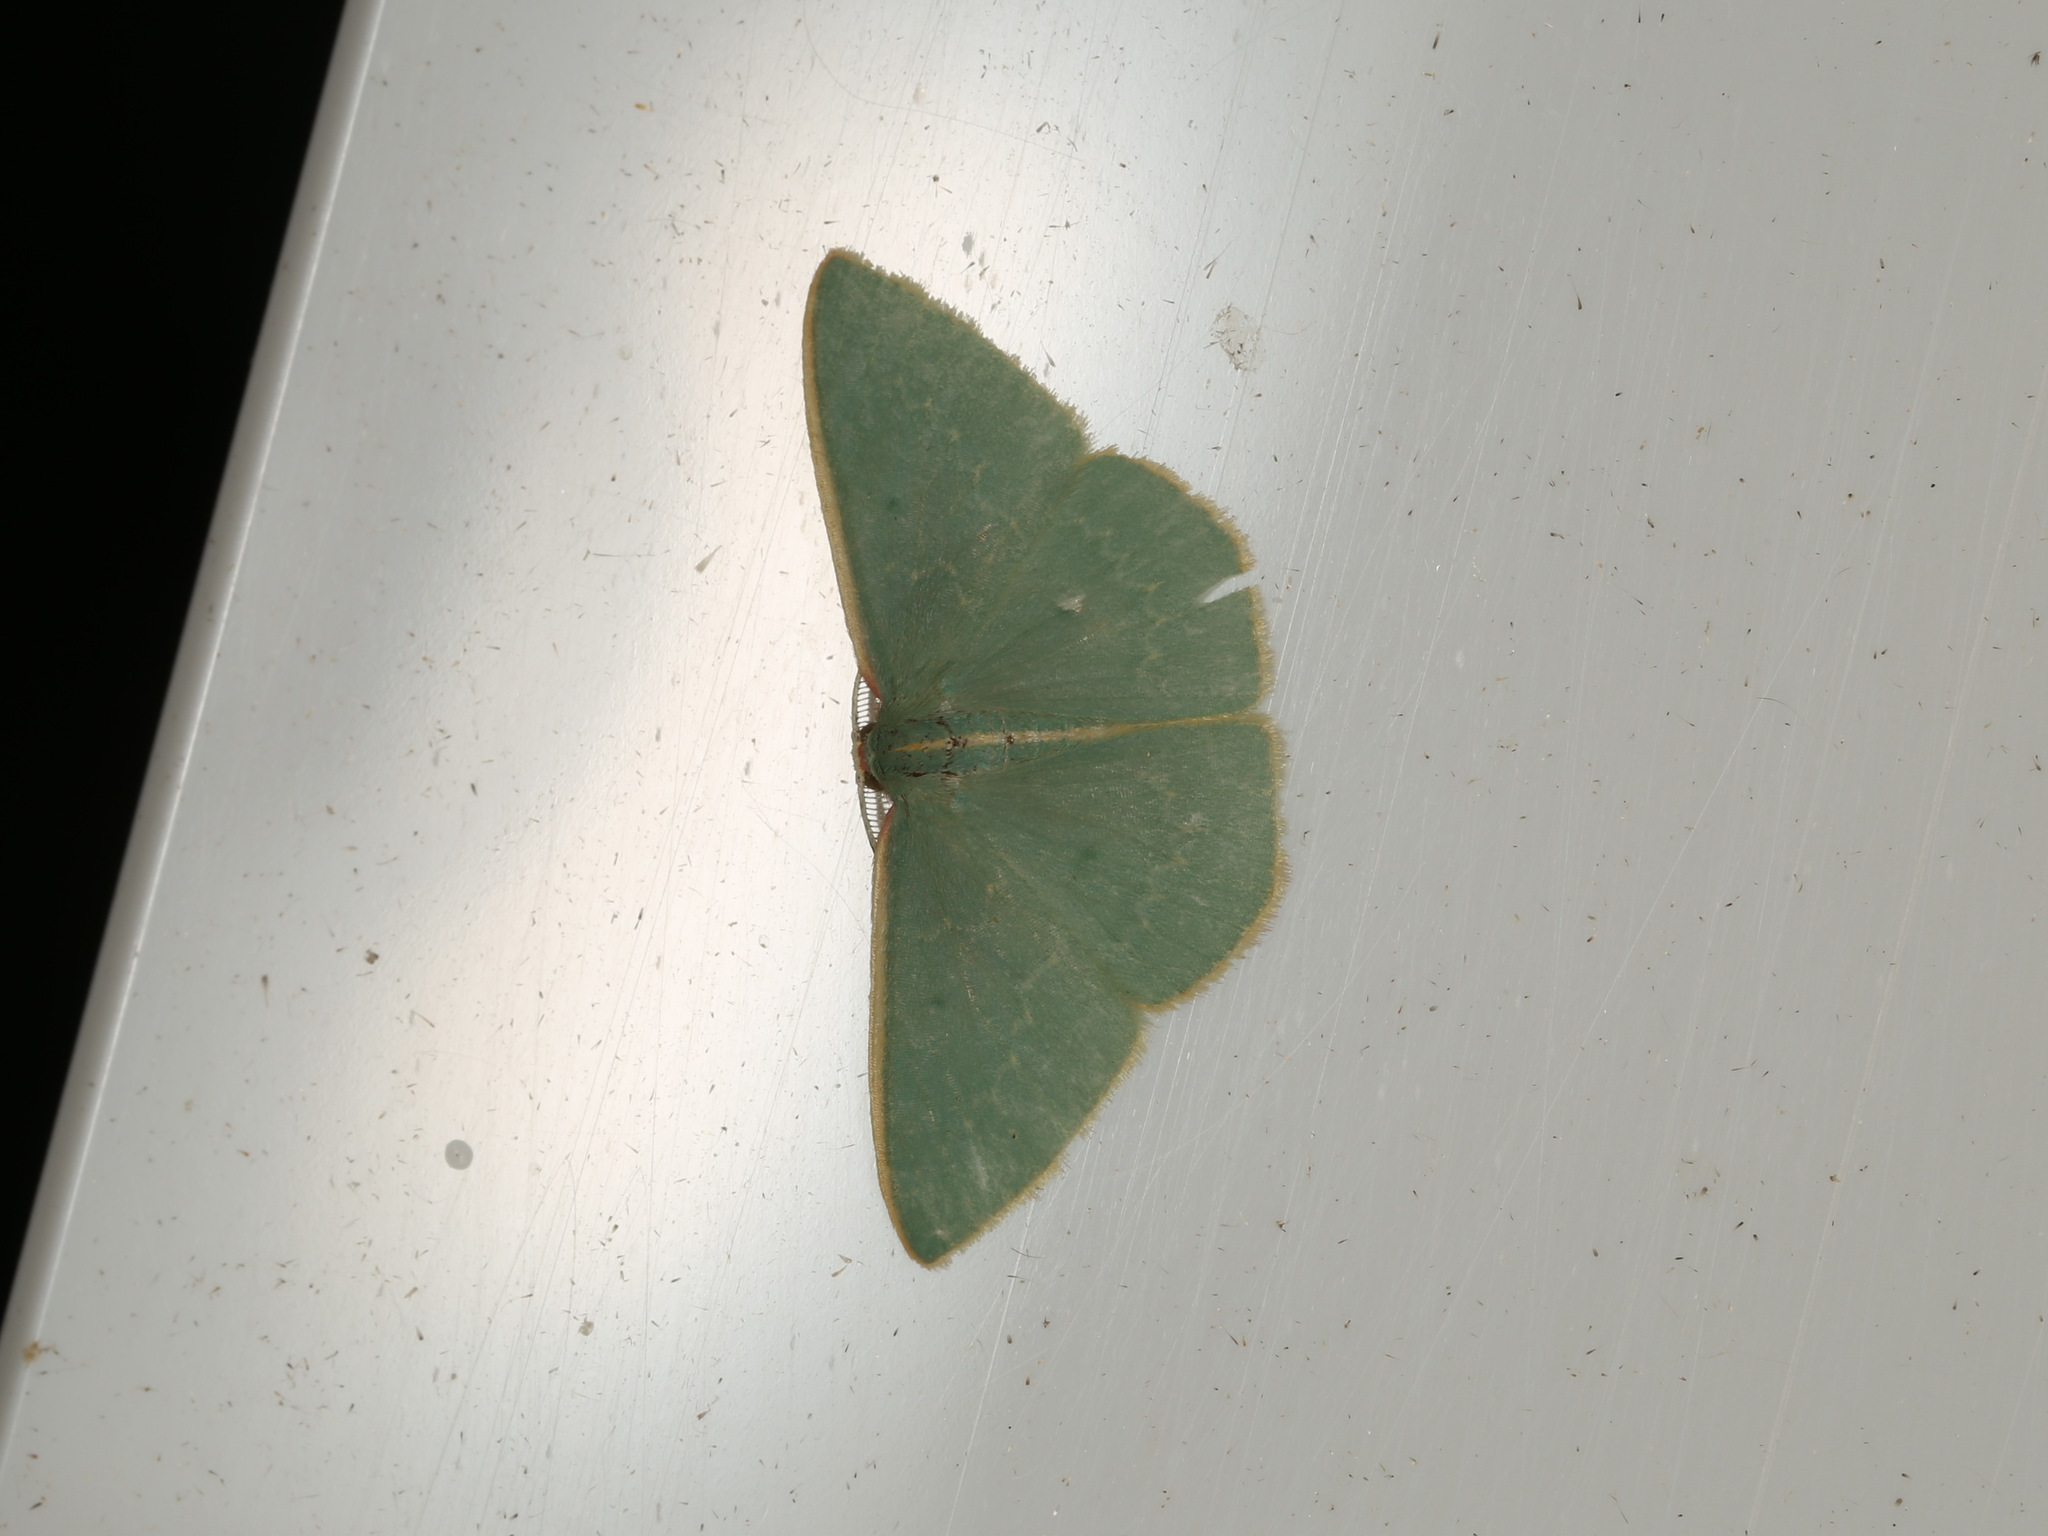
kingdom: Animalia
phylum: Arthropoda
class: Insecta
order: Lepidoptera
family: Geometridae
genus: Chlorocoma
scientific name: Chlorocoma melocrossa
